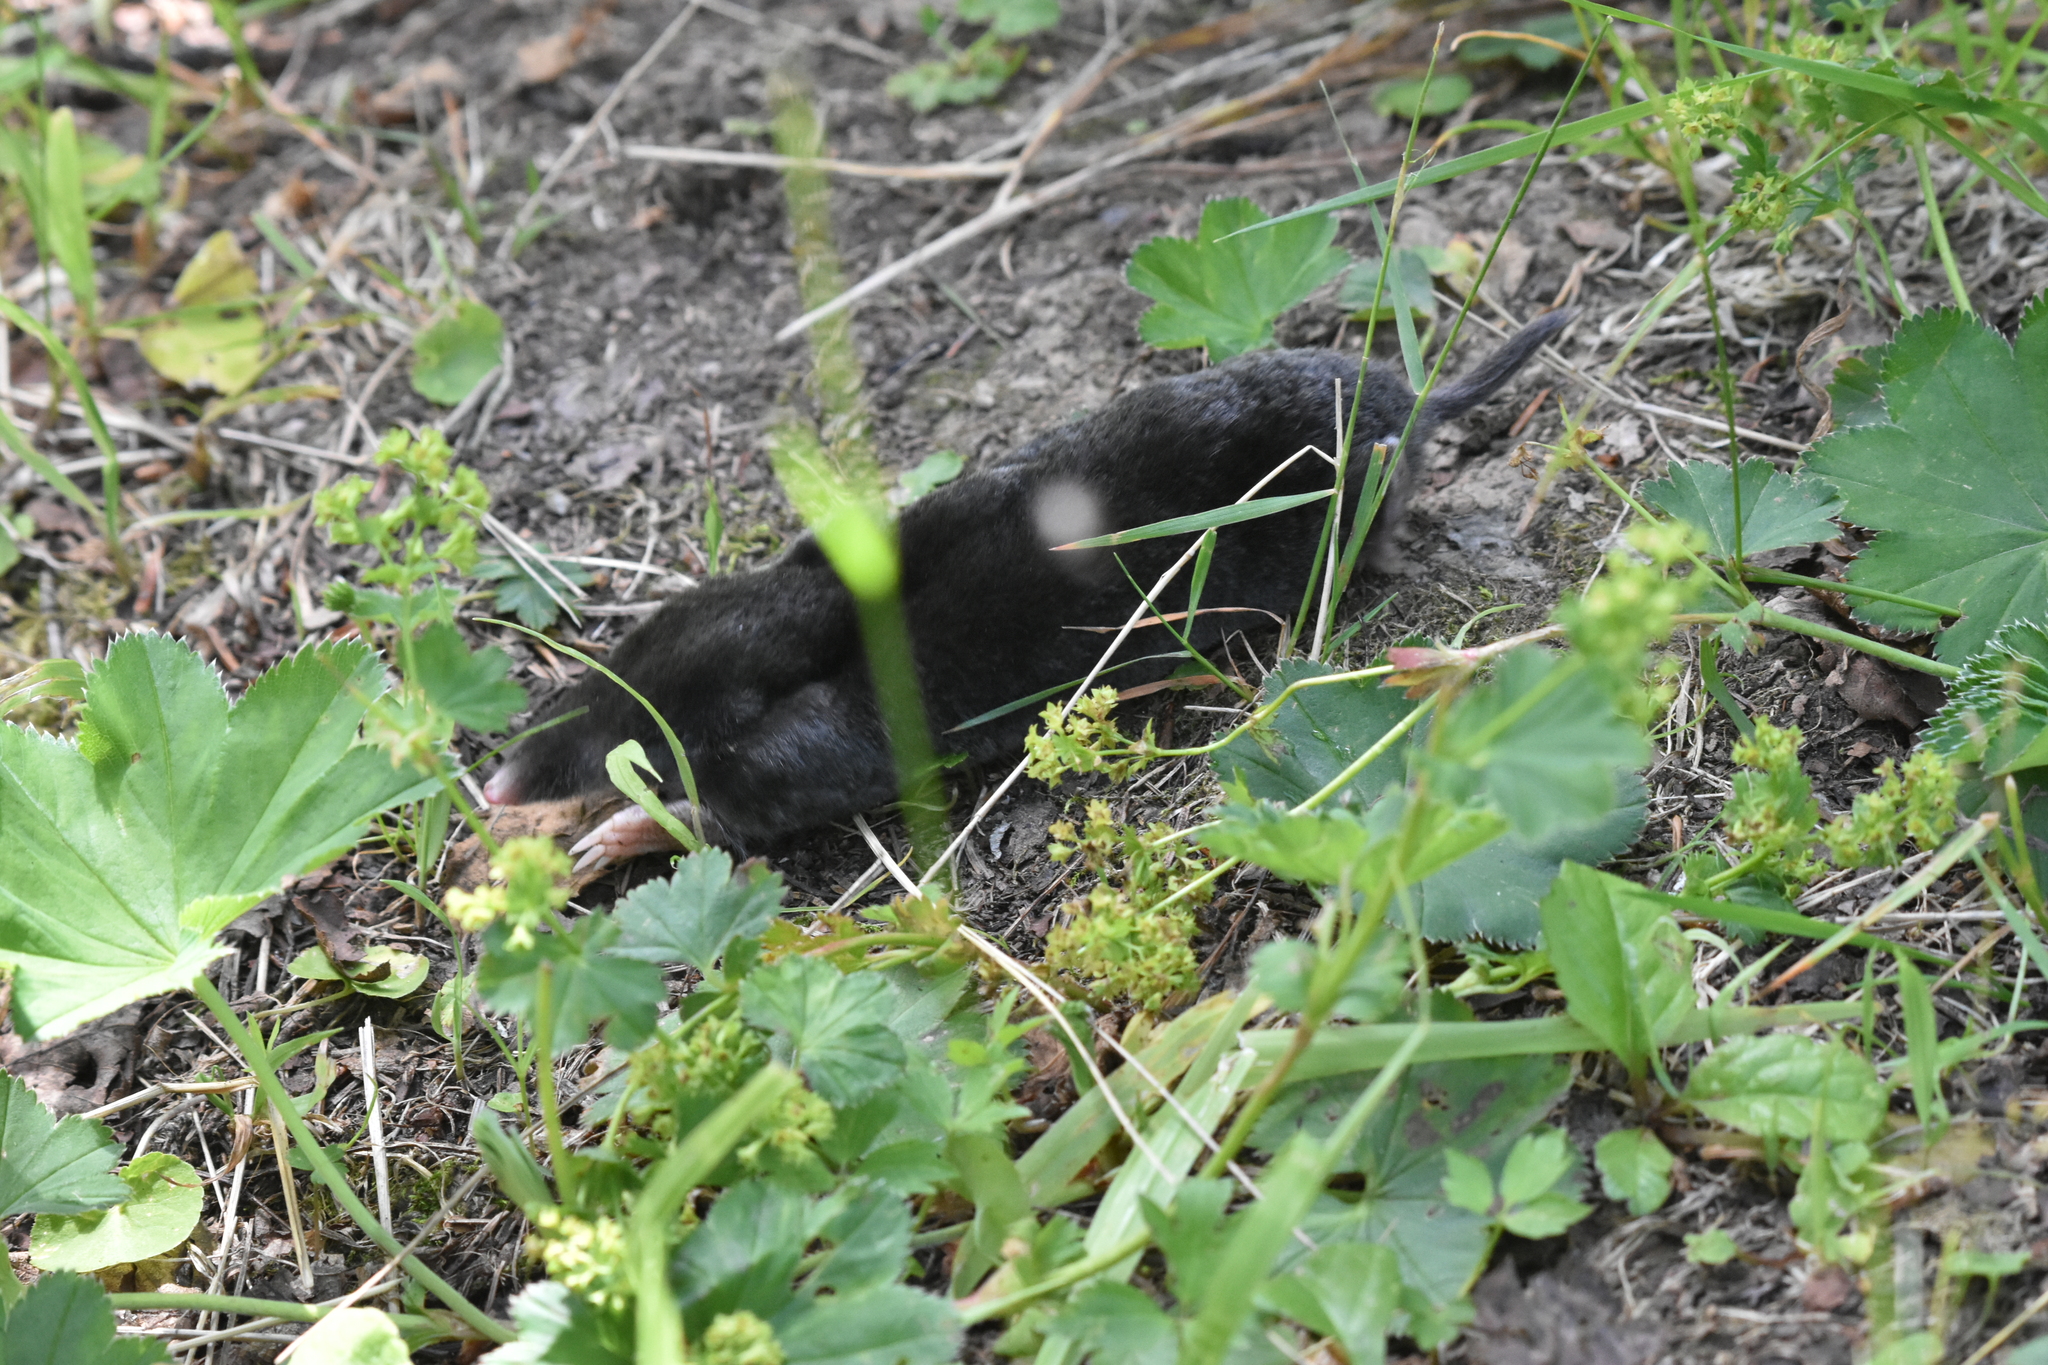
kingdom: Animalia
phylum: Chordata
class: Mammalia
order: Soricomorpha
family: Talpidae
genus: Talpa
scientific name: Talpa europaea
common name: European mole
